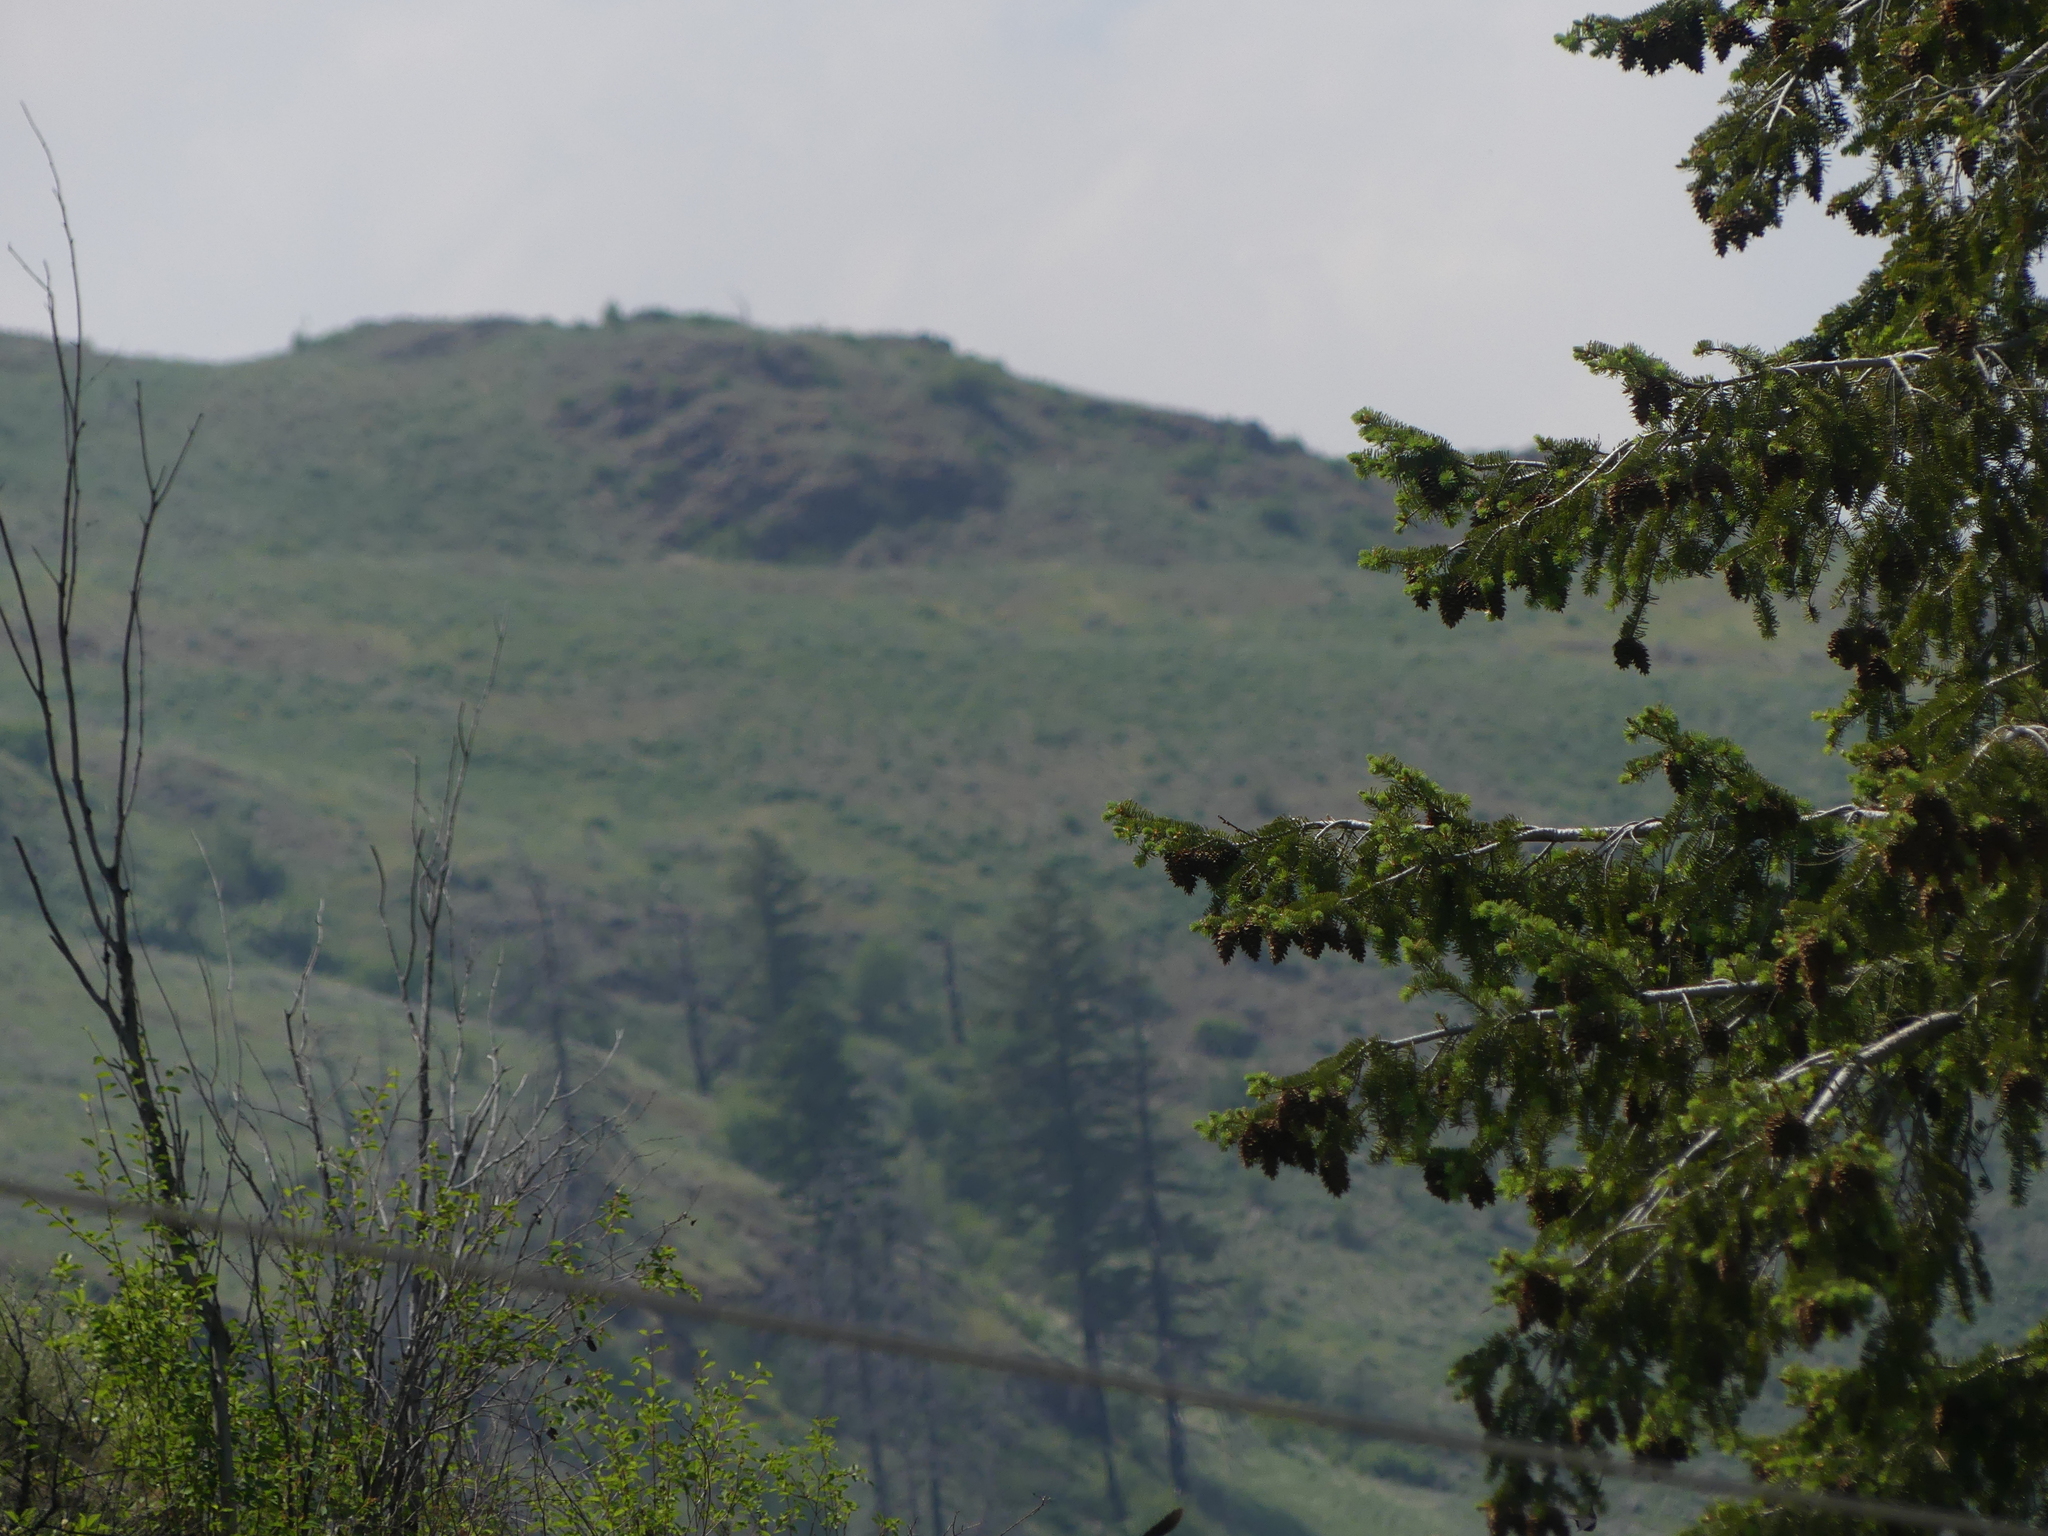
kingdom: Plantae
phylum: Tracheophyta
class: Pinopsida
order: Pinales
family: Pinaceae
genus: Pseudotsuga
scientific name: Pseudotsuga menziesii
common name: Douglas fir
